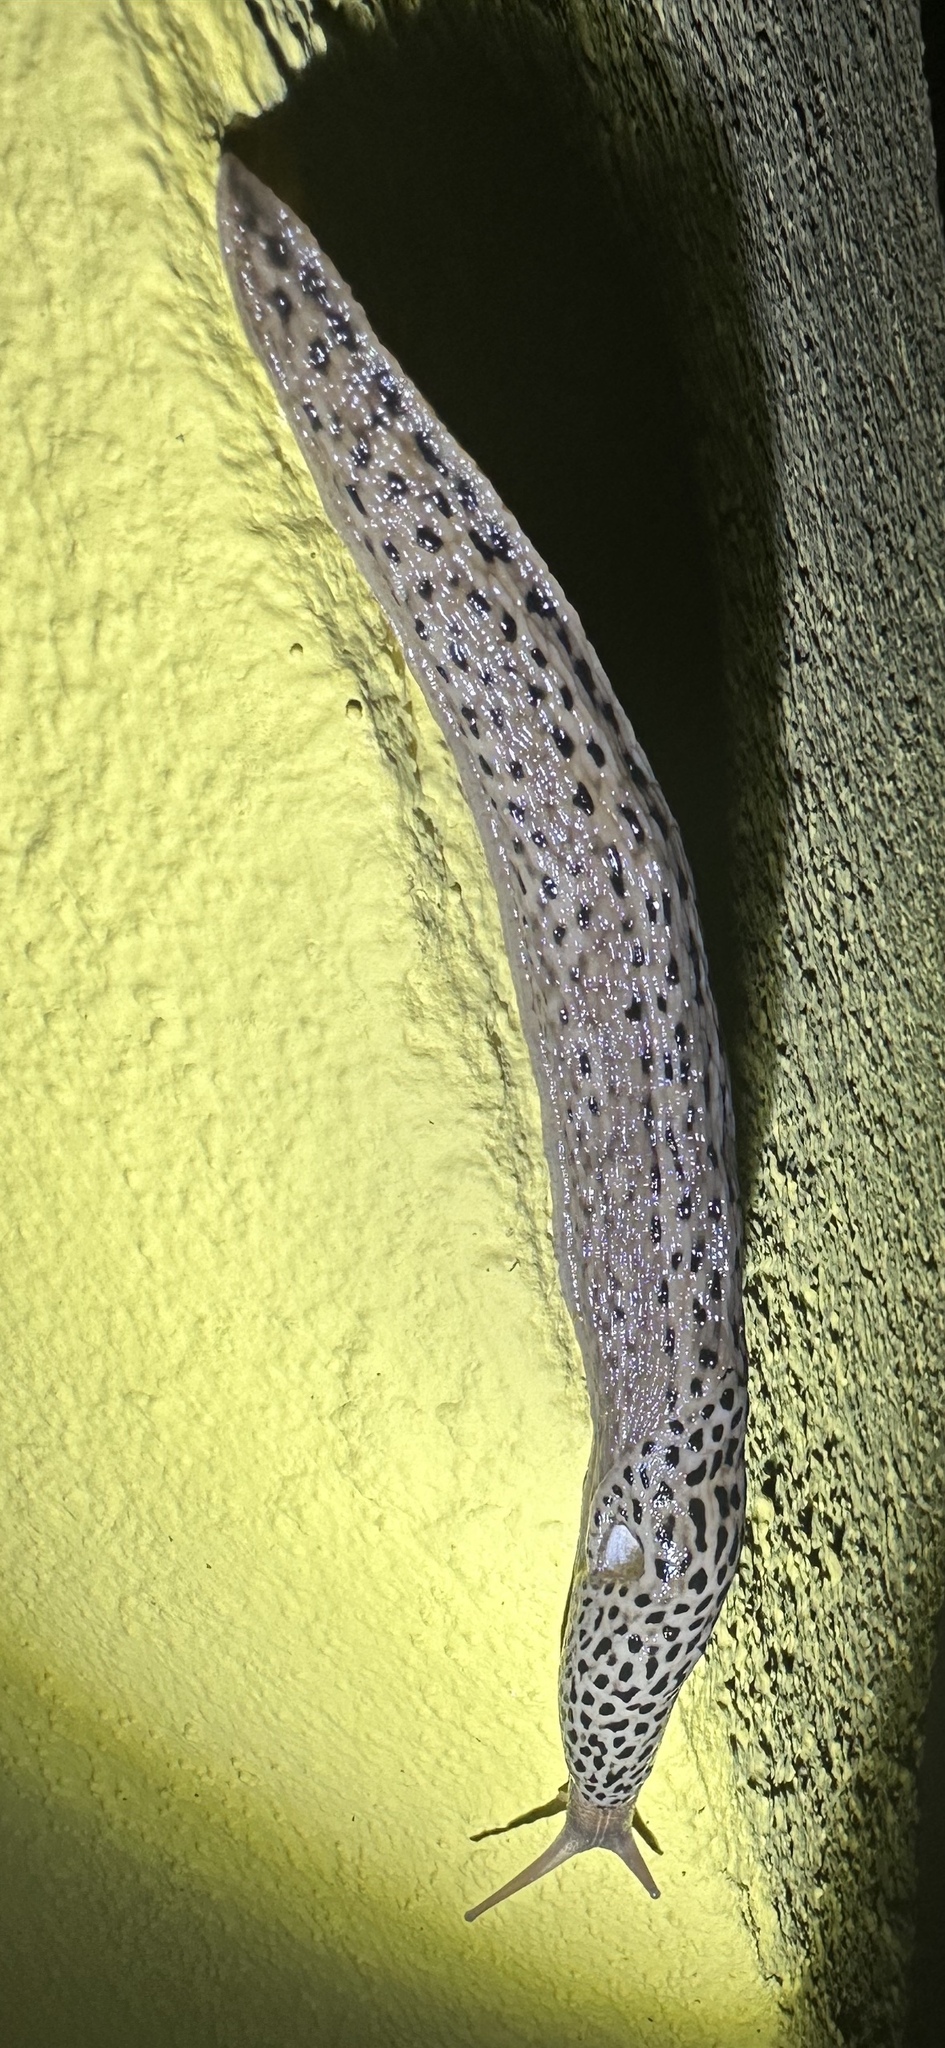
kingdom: Animalia
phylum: Mollusca
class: Gastropoda
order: Stylommatophora
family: Limacidae
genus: Limax
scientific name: Limax maximus
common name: Great grey slug
